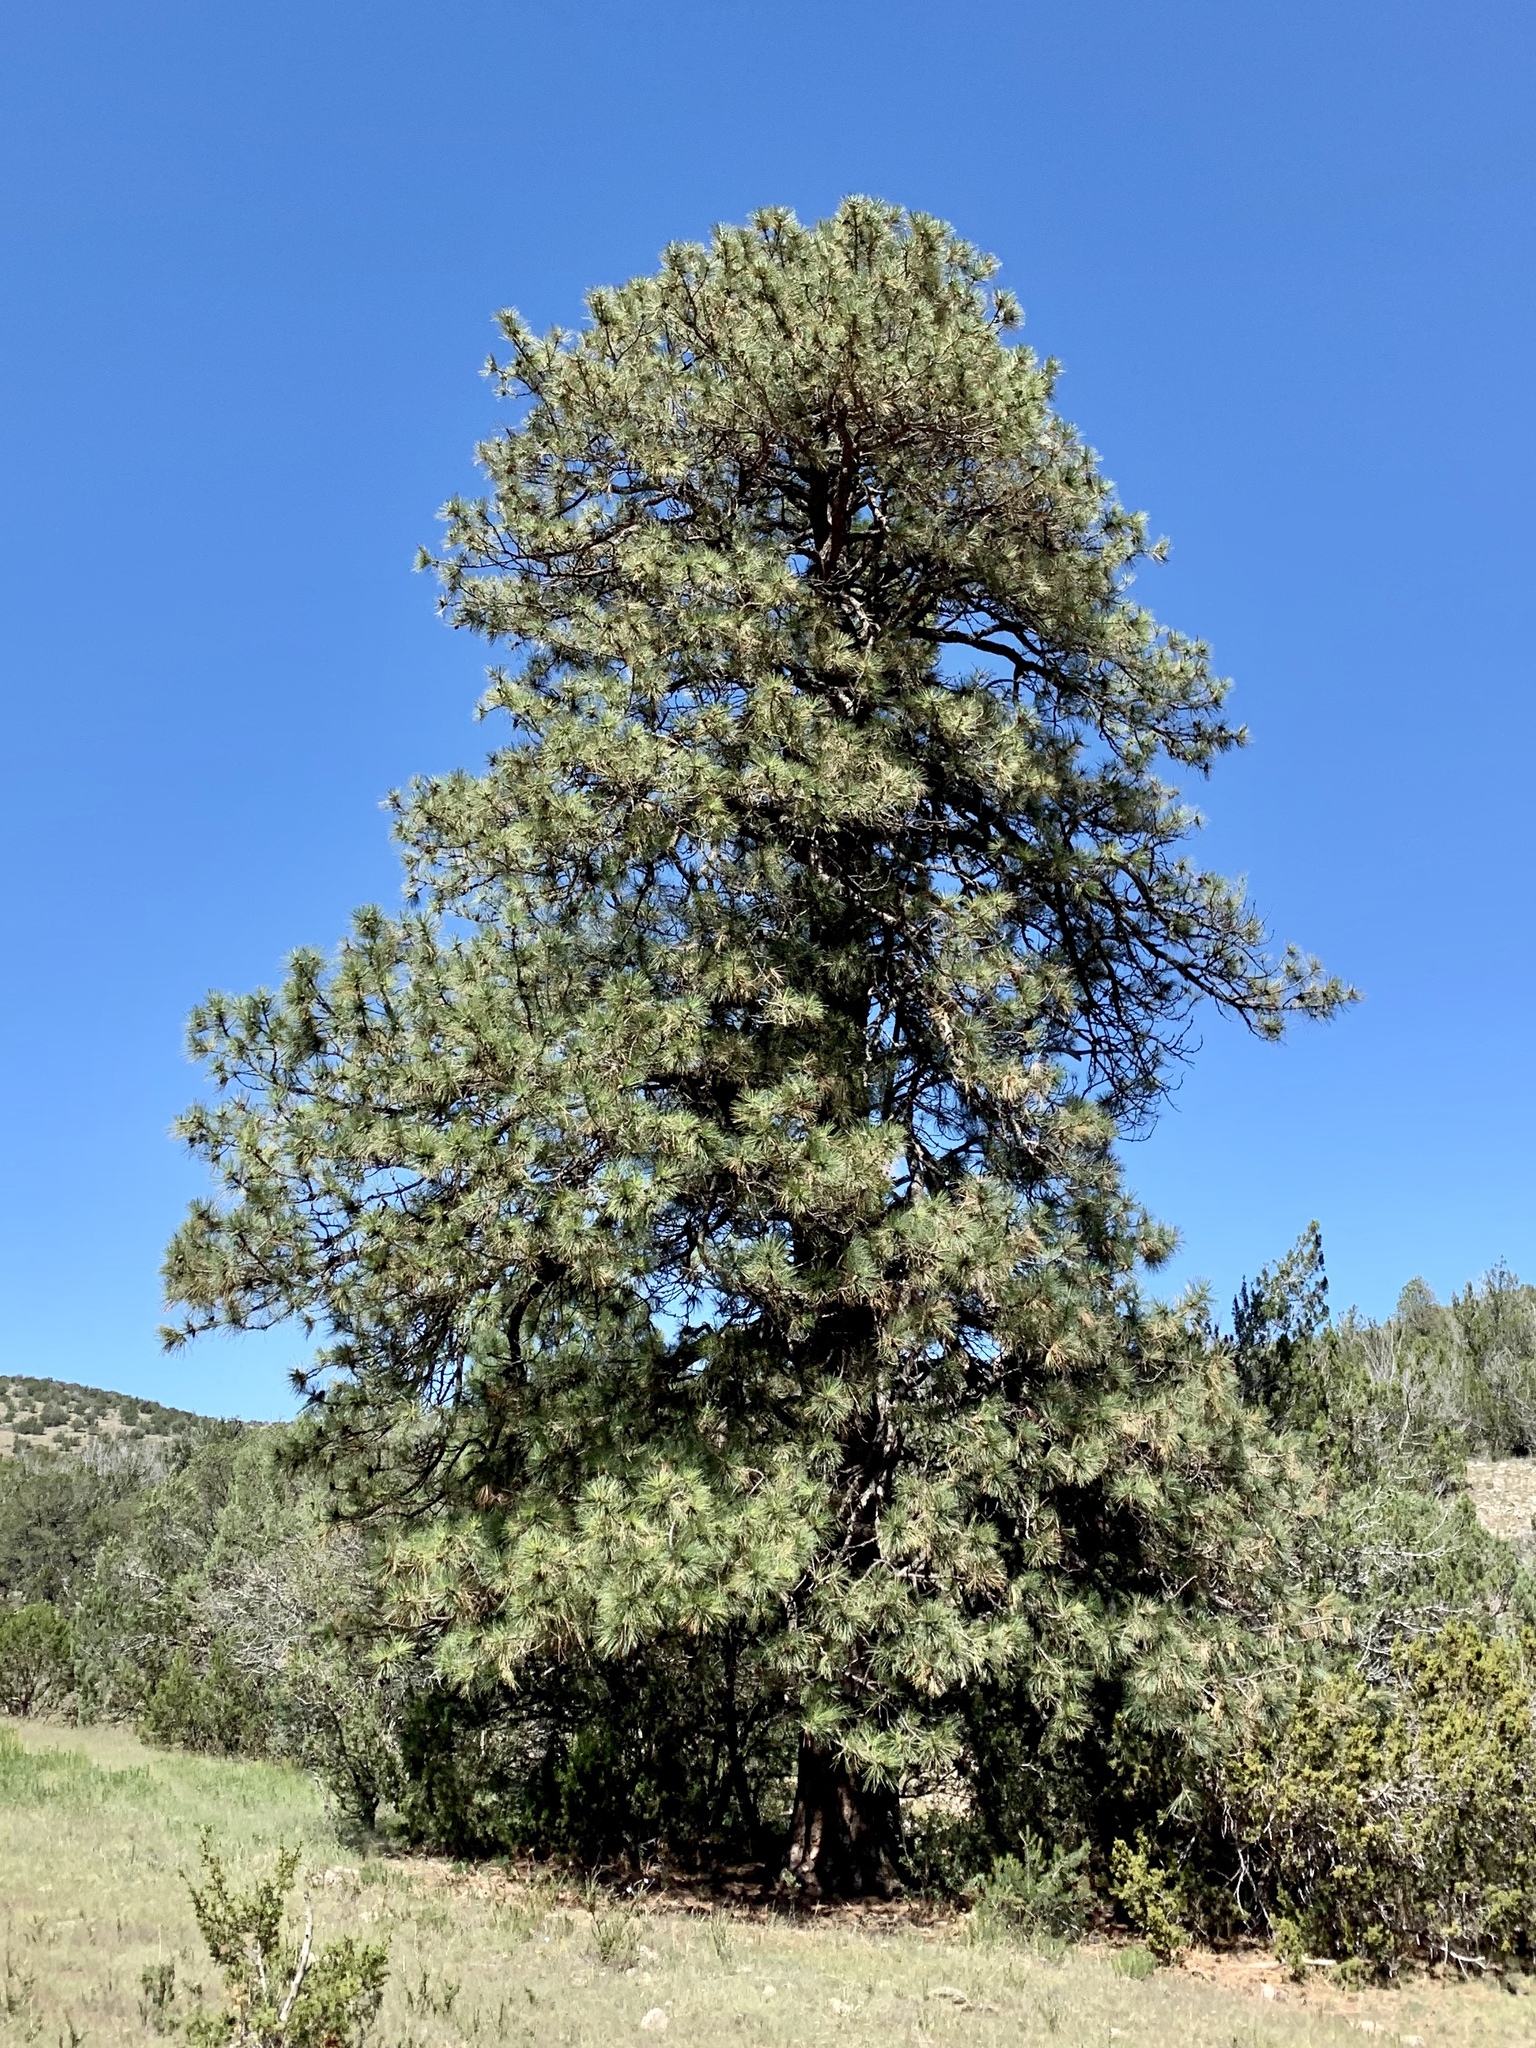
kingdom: Plantae
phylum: Tracheophyta
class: Pinopsida
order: Pinales
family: Pinaceae
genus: Pinus
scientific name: Pinus ponderosa
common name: Western yellow-pine
